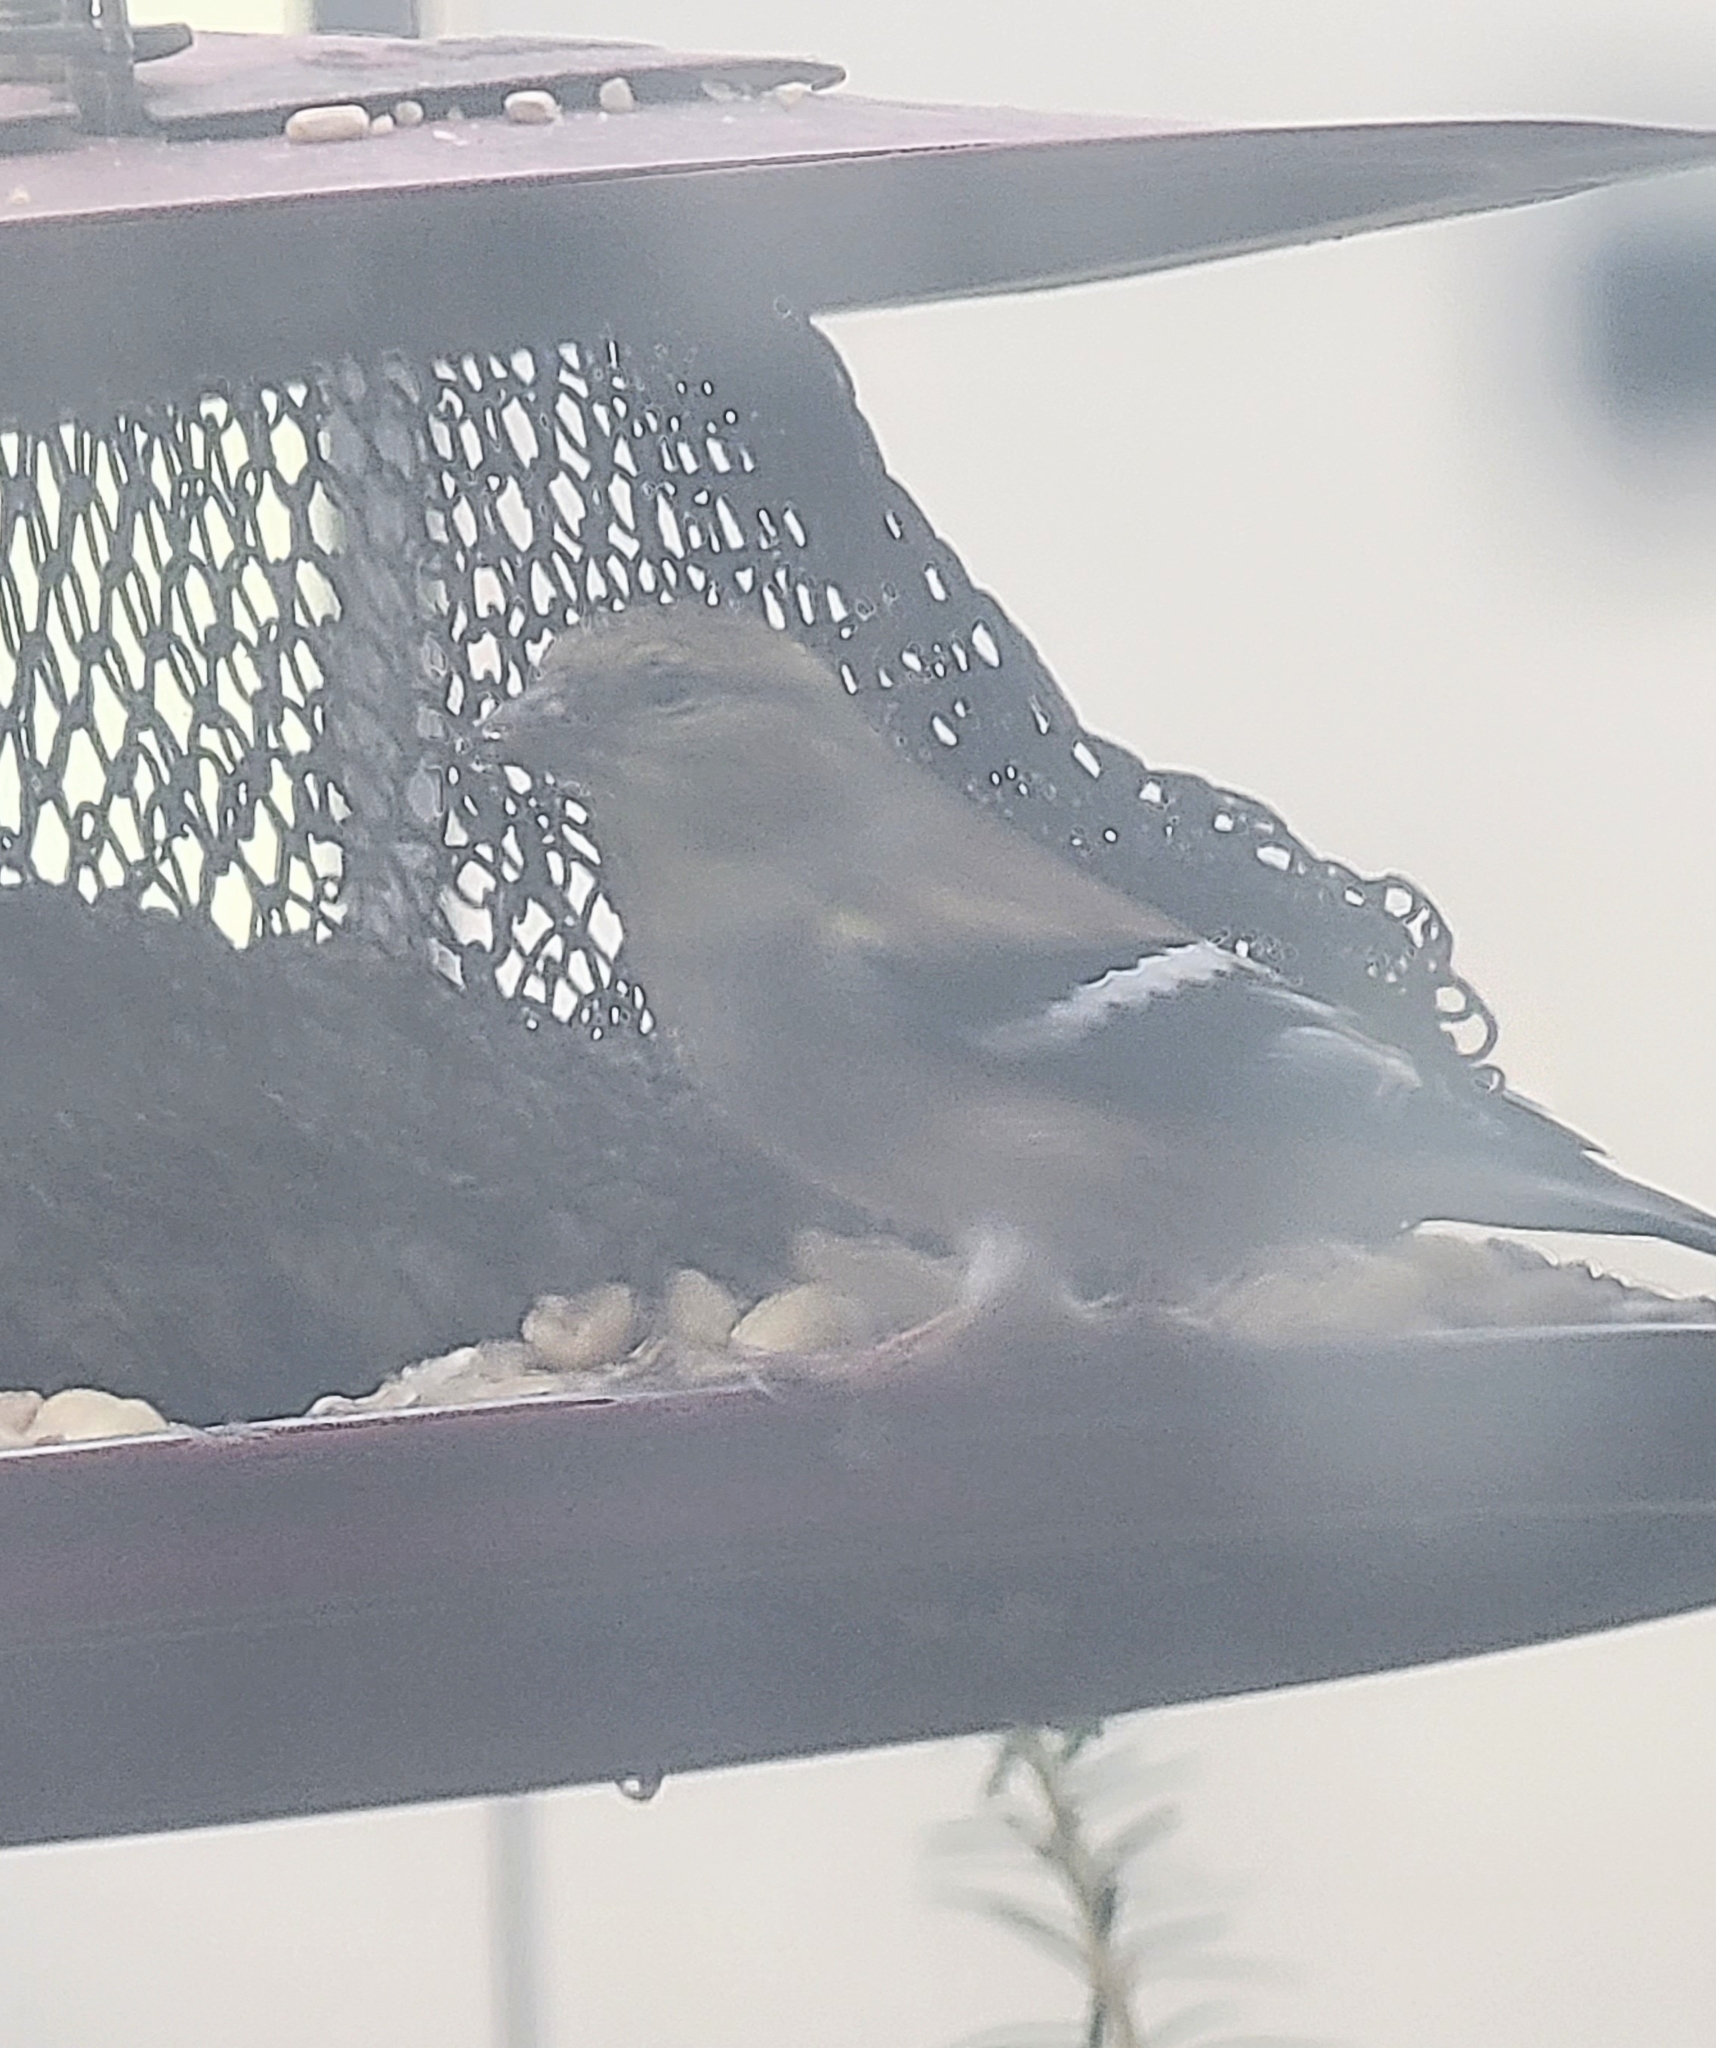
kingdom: Animalia
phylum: Chordata
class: Aves
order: Passeriformes
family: Fringillidae
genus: Spinus
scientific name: Spinus tristis
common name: American goldfinch
